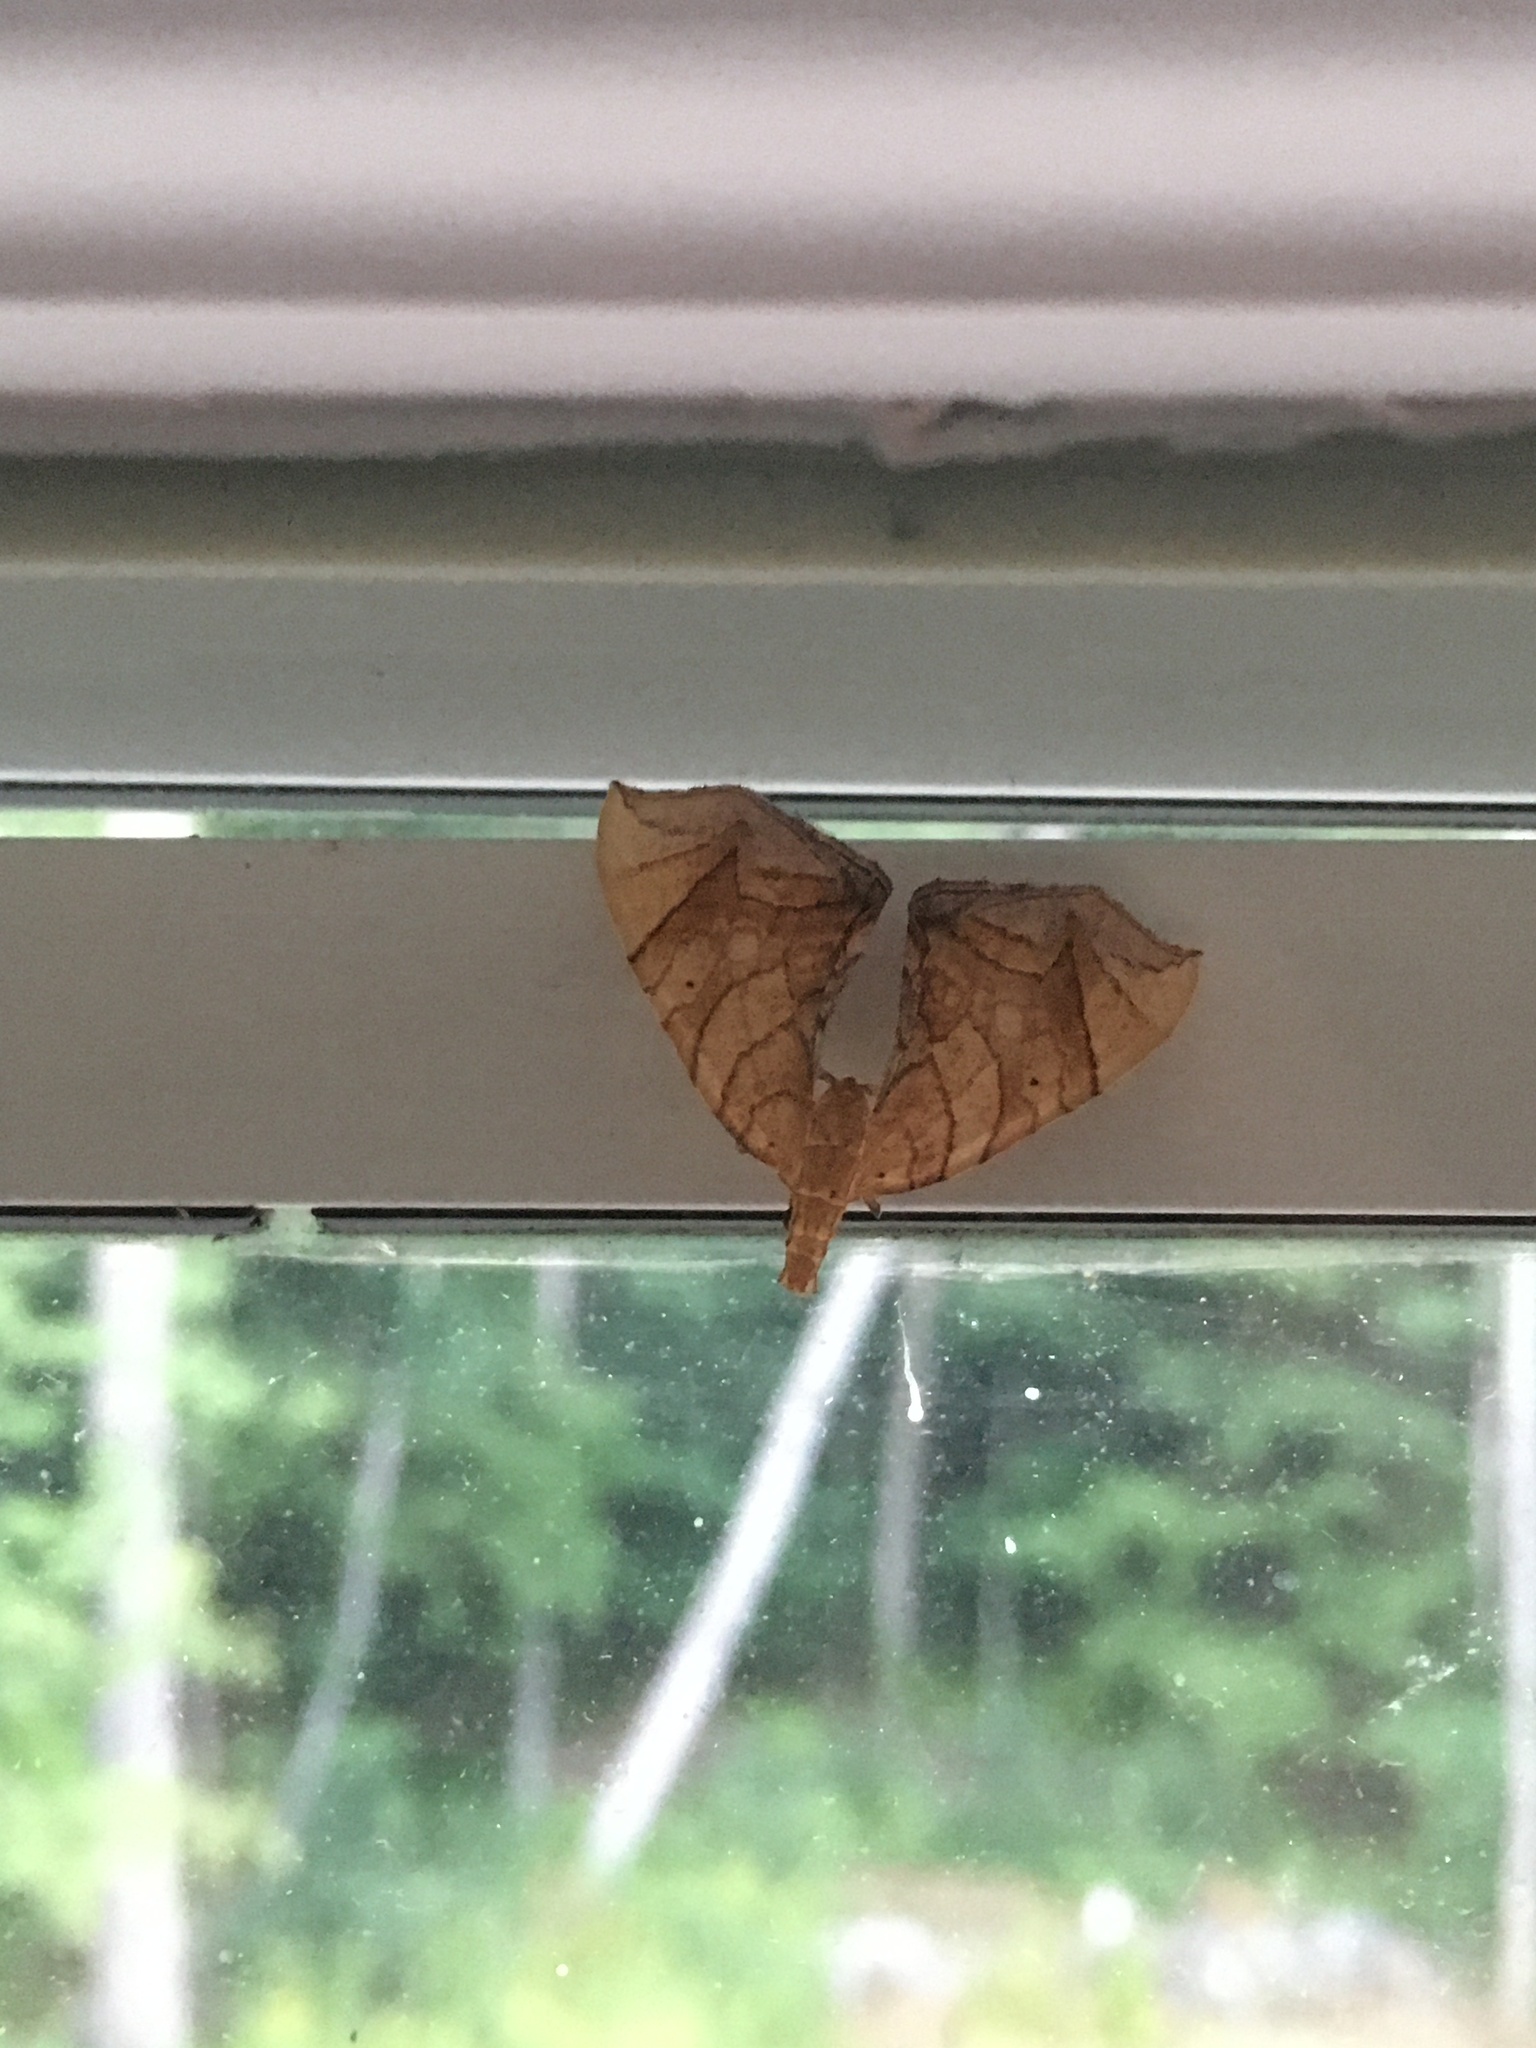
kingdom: Animalia
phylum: Arthropoda
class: Insecta
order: Lepidoptera
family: Geometridae
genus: Eulithis
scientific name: Eulithis
